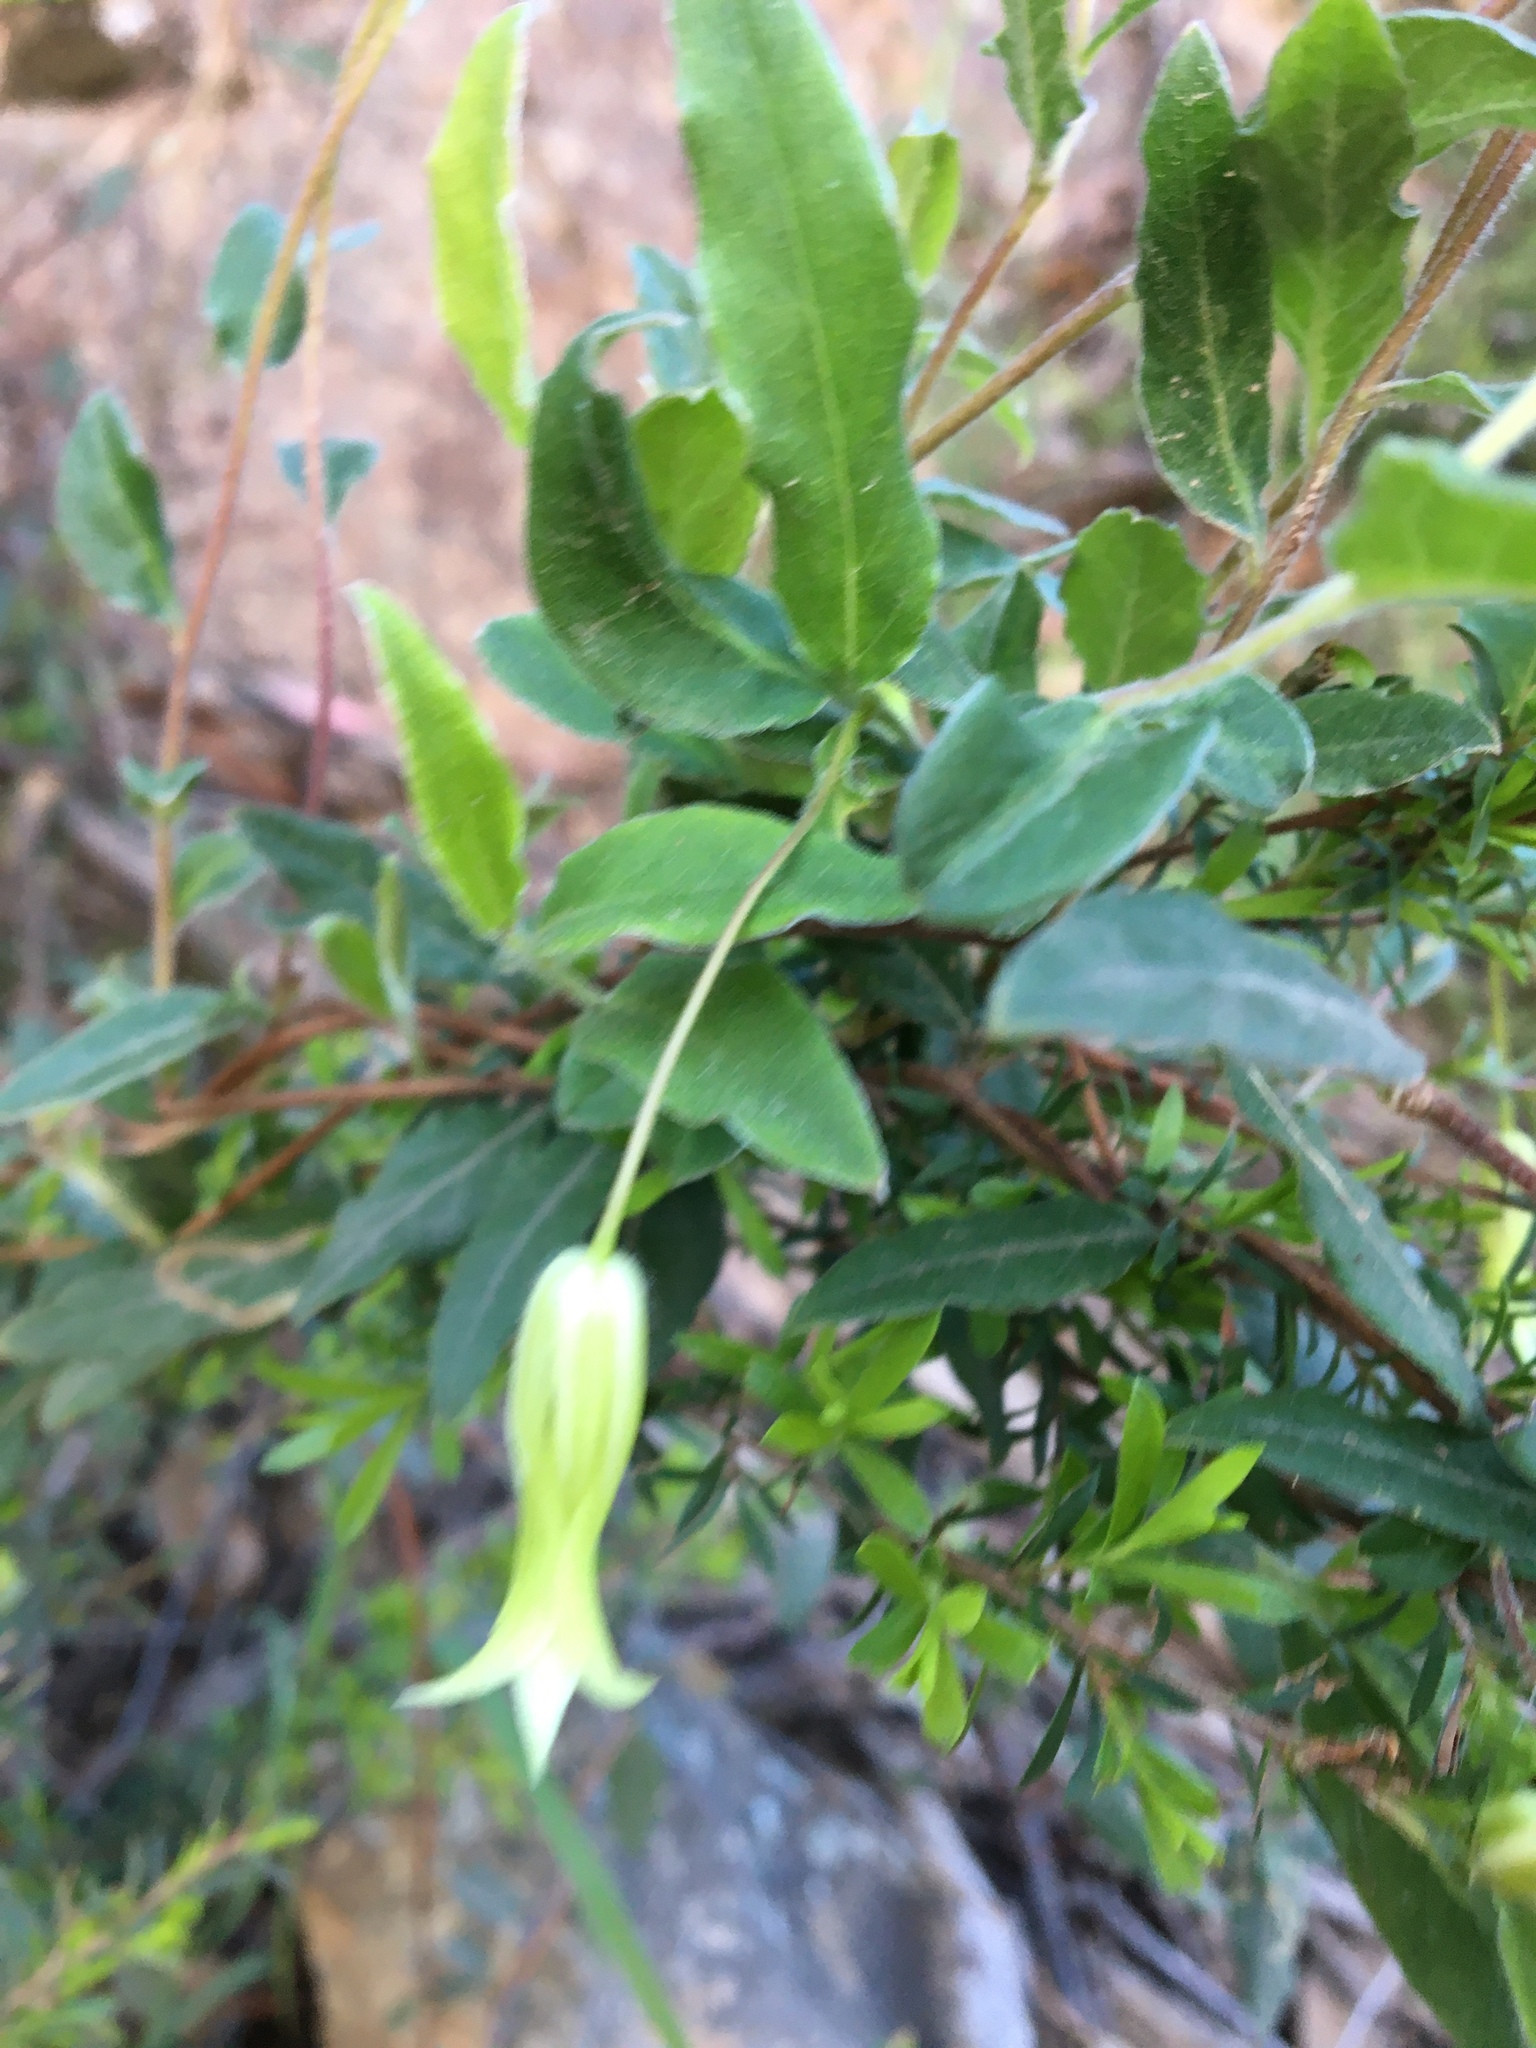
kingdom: Plantae
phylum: Tracheophyta
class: Magnoliopsida
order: Apiales
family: Pittosporaceae
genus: Billardiera
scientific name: Billardiera mutabilis
